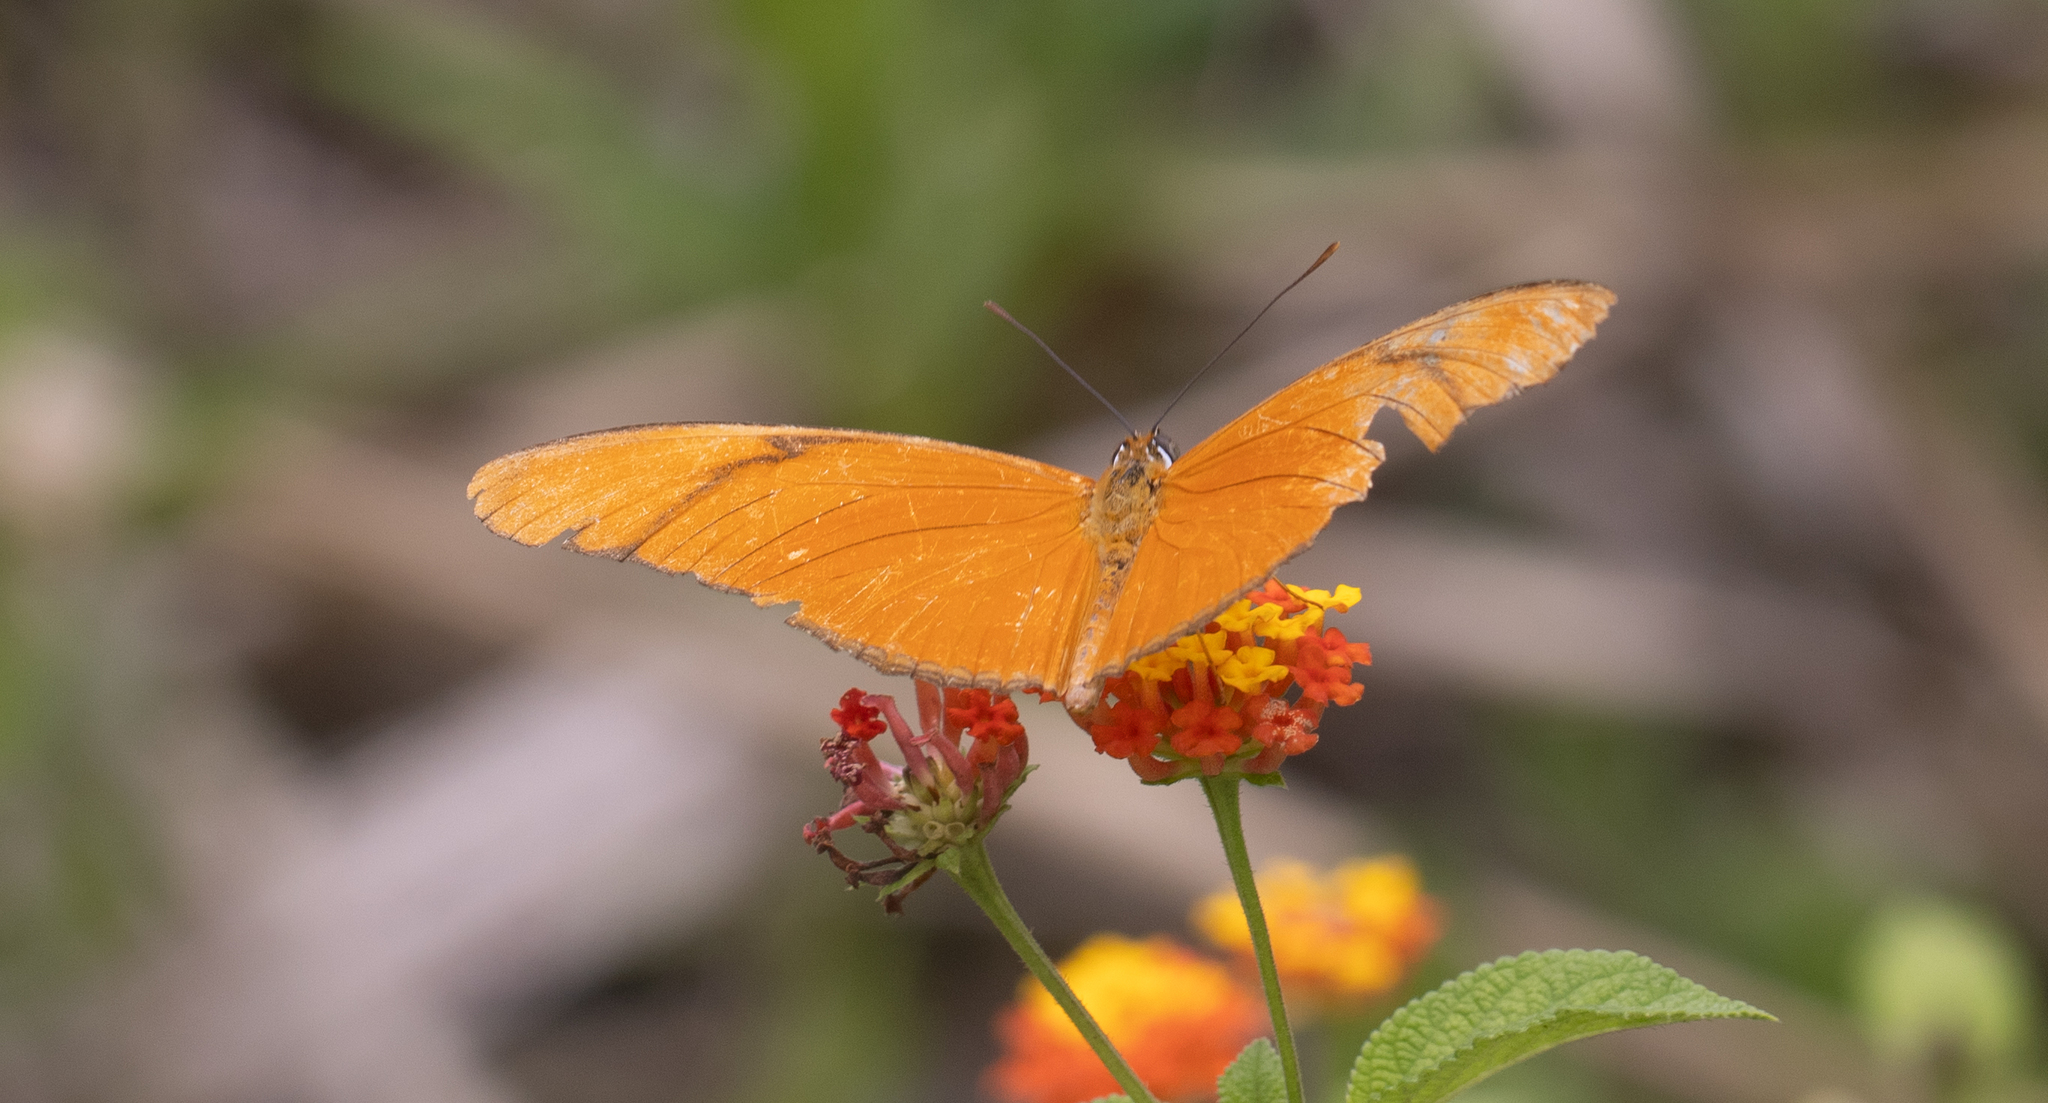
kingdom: Animalia
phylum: Arthropoda
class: Insecta
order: Lepidoptera
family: Nymphalidae
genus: Dryas
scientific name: Dryas iulia
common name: Flambeau
